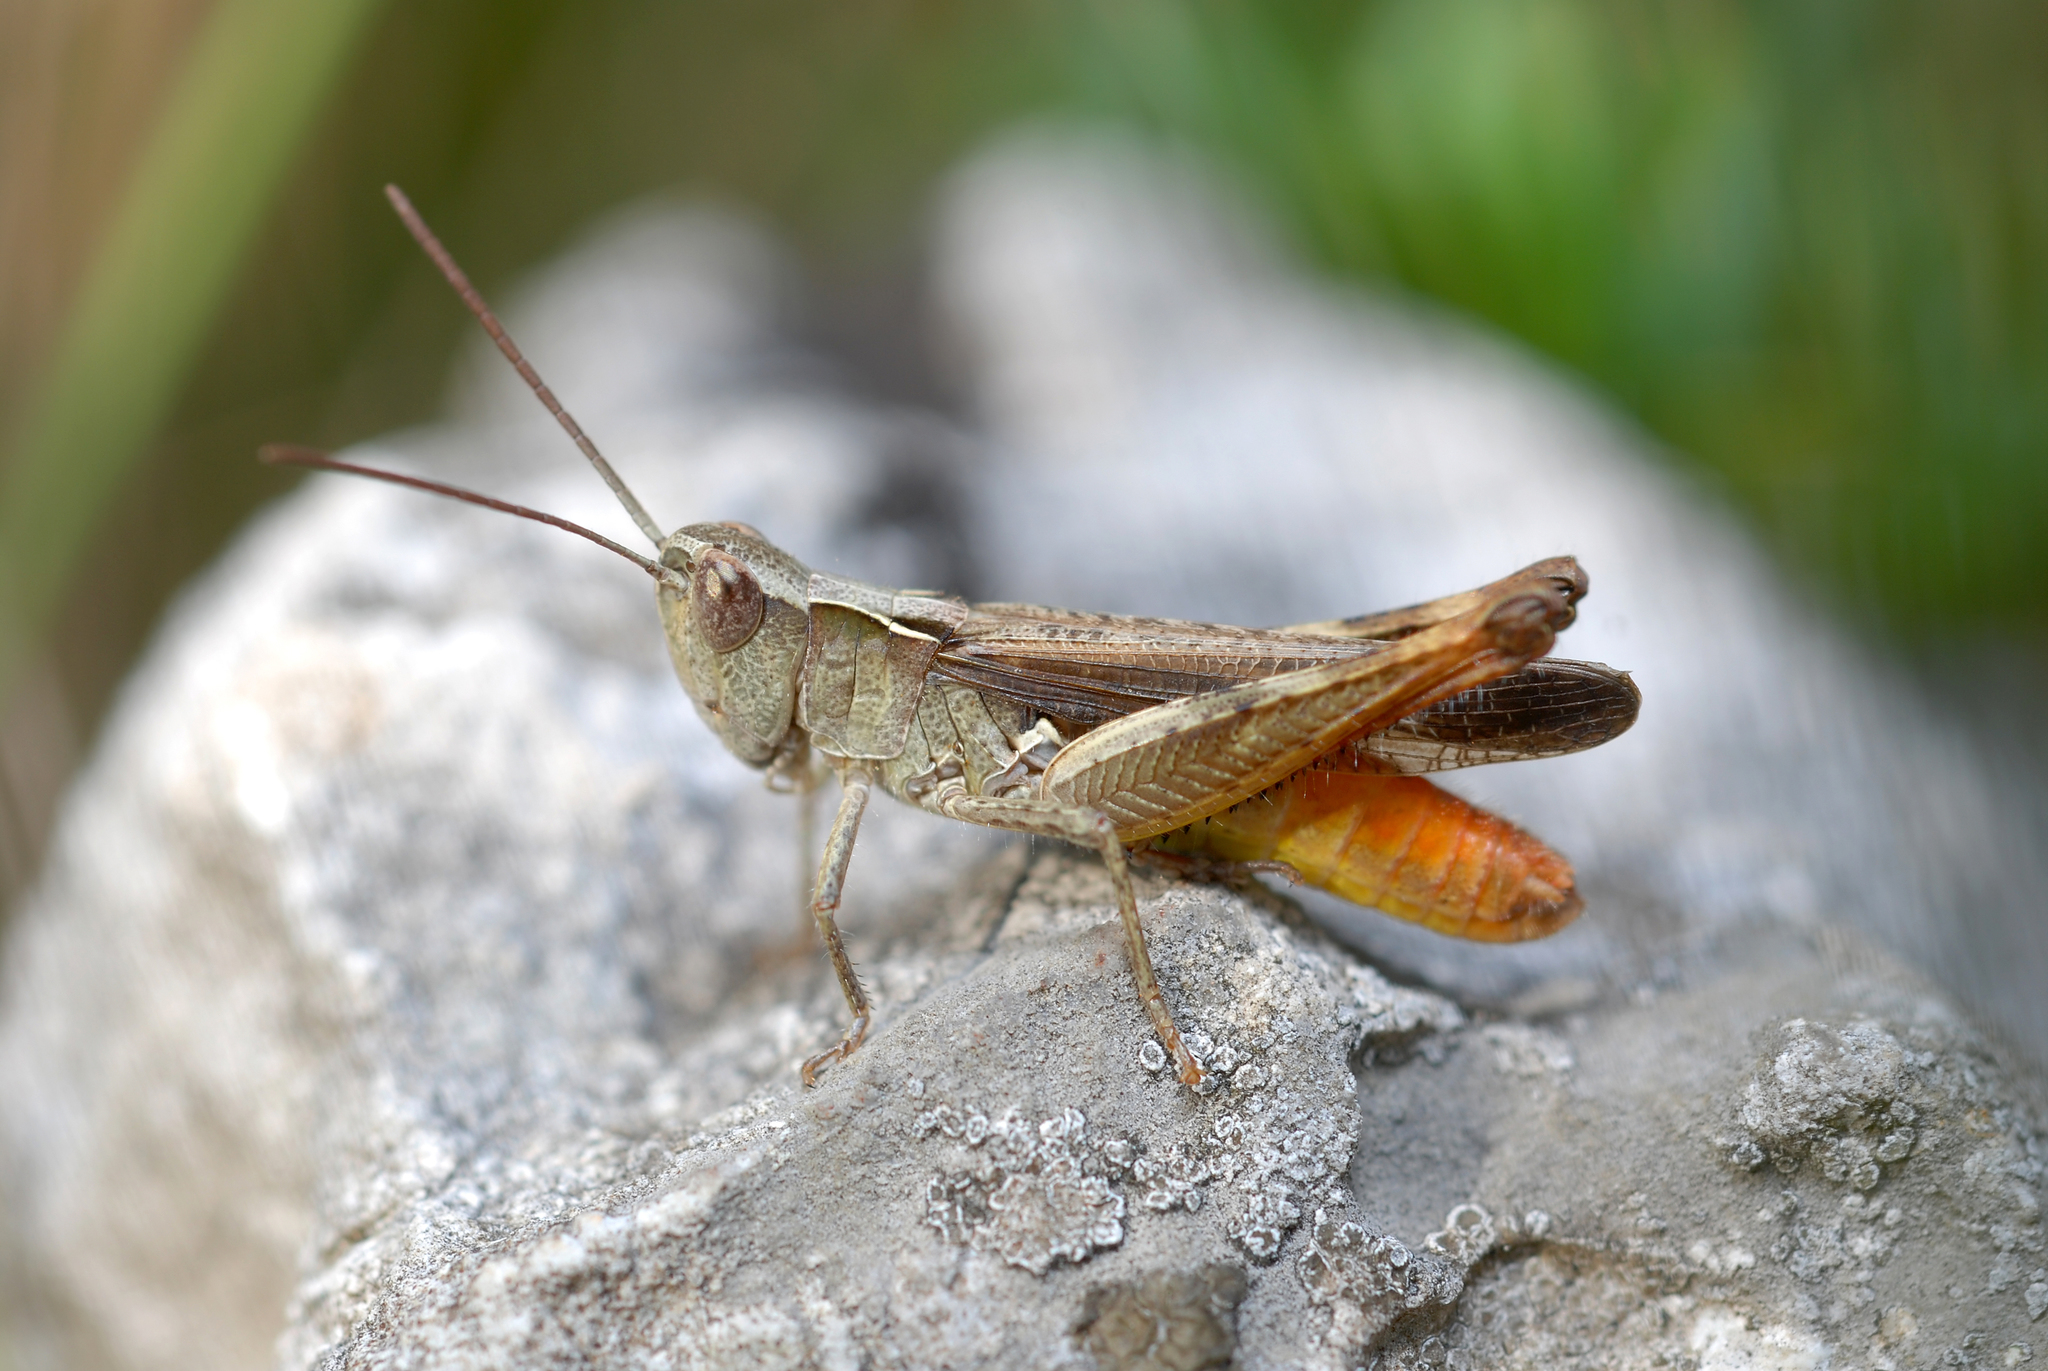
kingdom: Animalia
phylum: Arthropoda
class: Insecta
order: Orthoptera
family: Acrididae
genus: Chorthippus
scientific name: Chorthippus vagans
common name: Heath grasshopper
